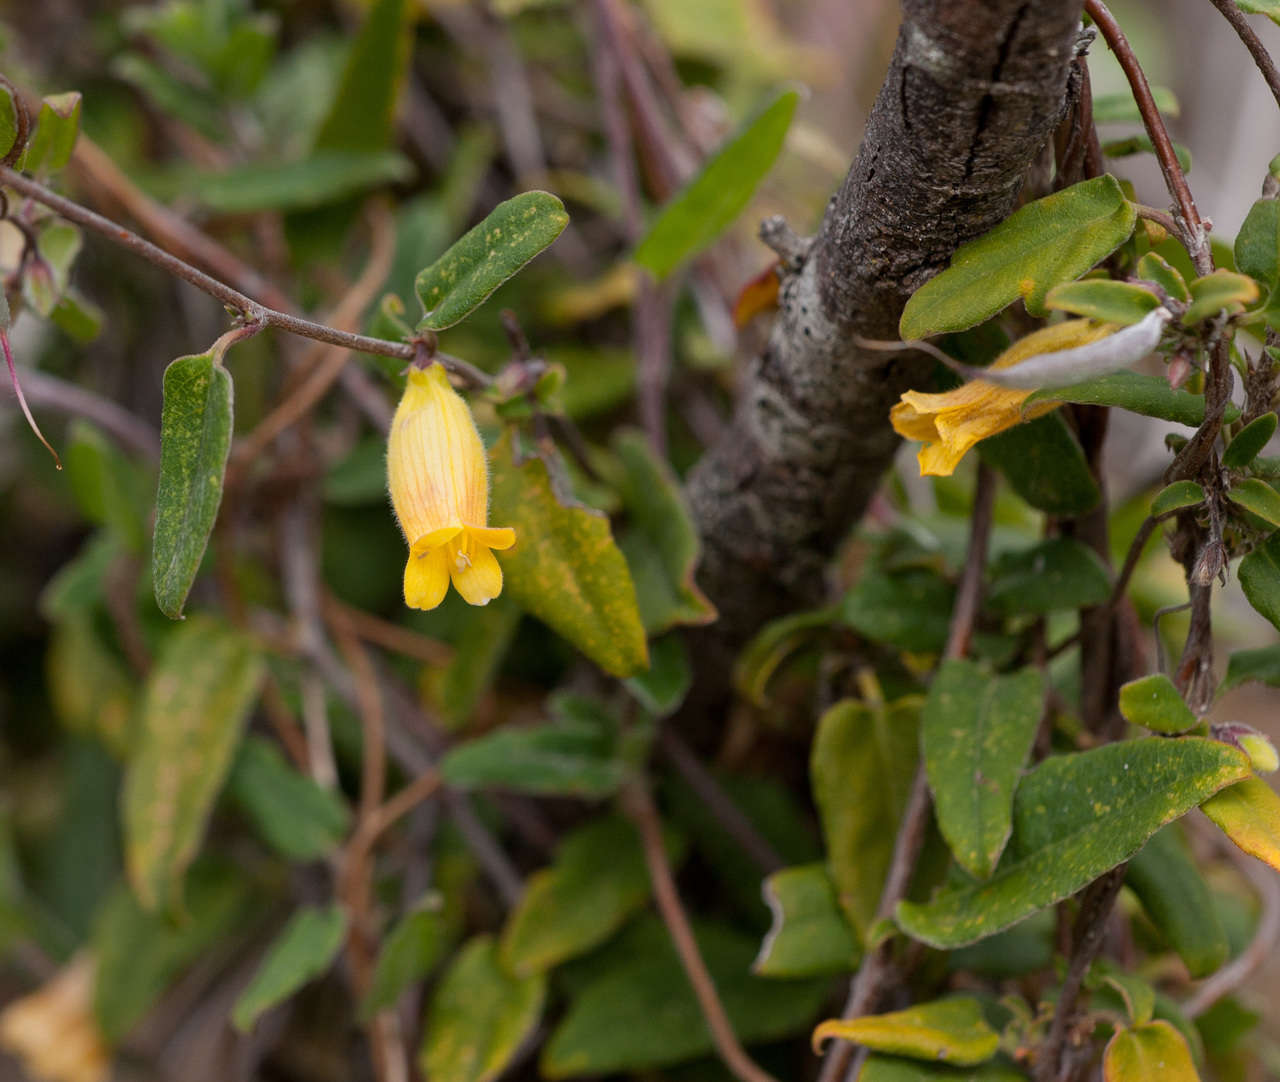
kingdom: Plantae
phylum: Tracheophyta
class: Magnoliopsida
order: Apiales
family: Pittosporaceae
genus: Marianthus
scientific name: Marianthus bignoniaceus
